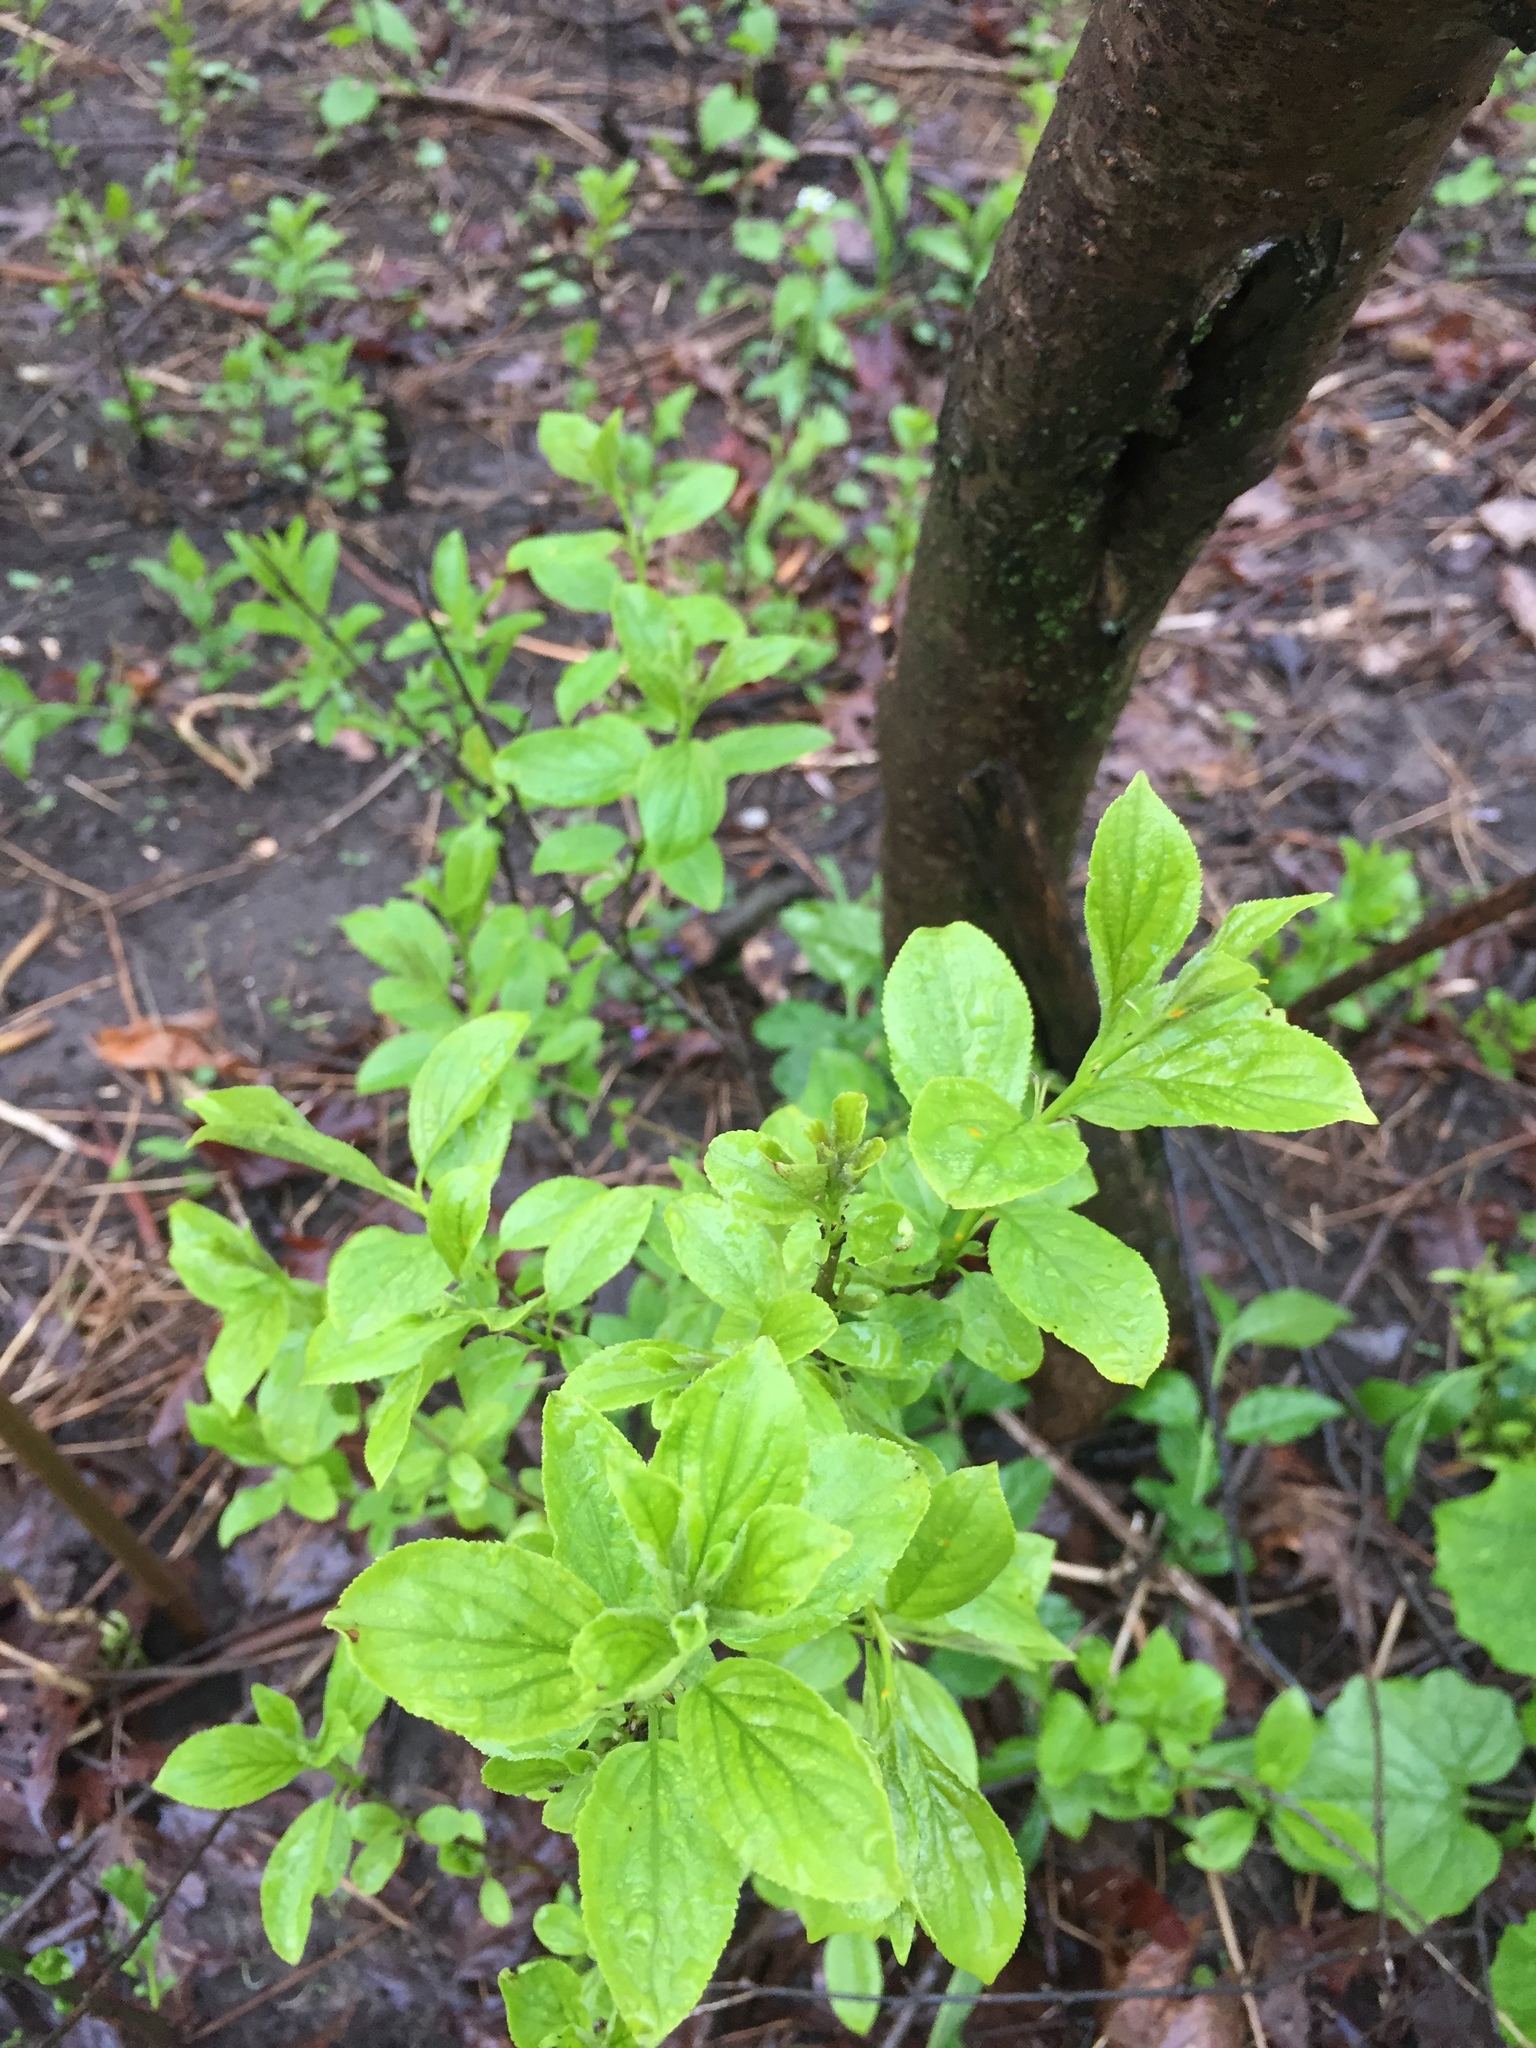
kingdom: Plantae
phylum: Tracheophyta
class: Magnoliopsida
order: Rosales
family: Rhamnaceae
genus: Rhamnus
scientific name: Rhamnus cathartica
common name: Common buckthorn
